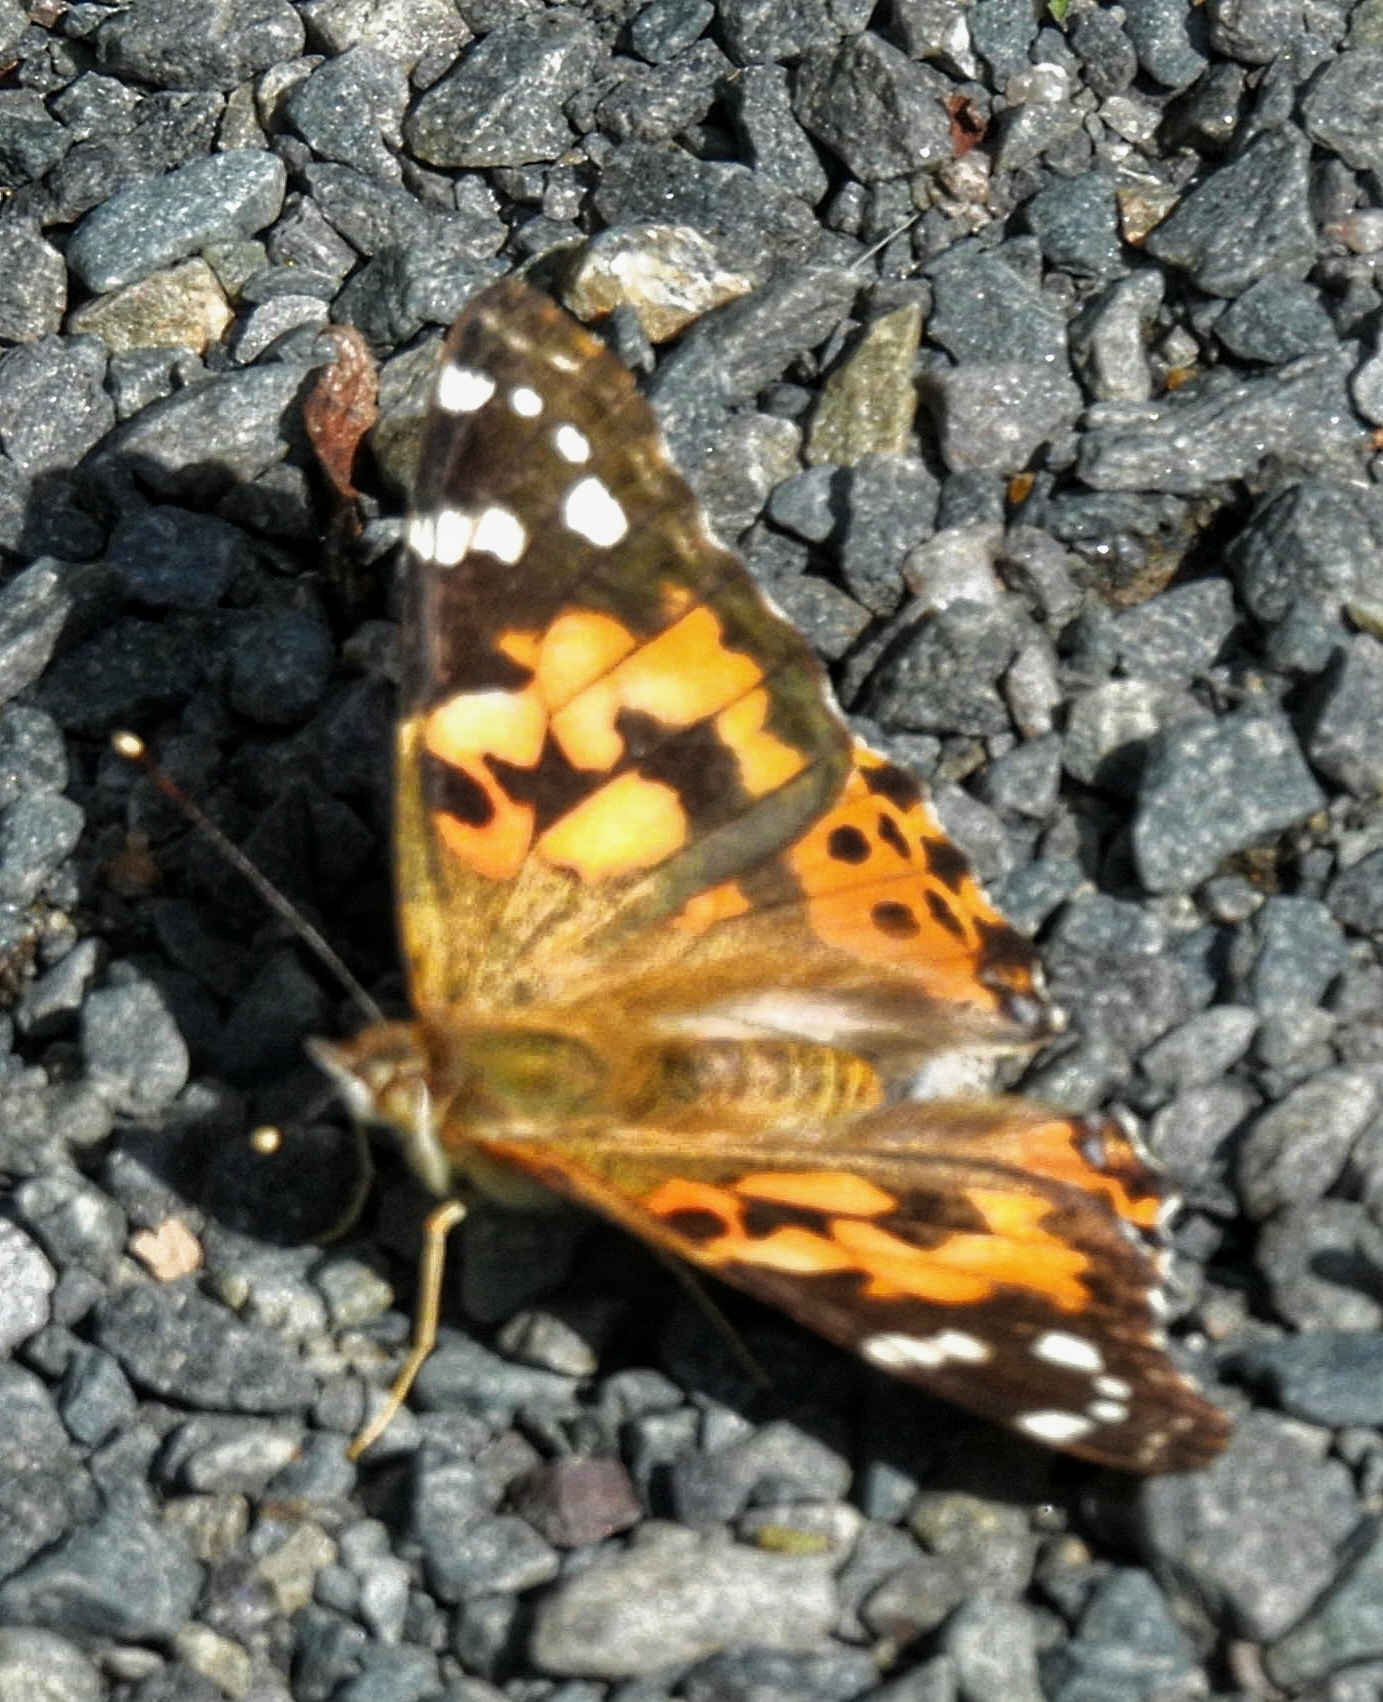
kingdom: Animalia
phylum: Arthropoda
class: Insecta
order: Lepidoptera
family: Nymphalidae
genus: Vanessa
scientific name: Vanessa cardui
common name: Painted lady
